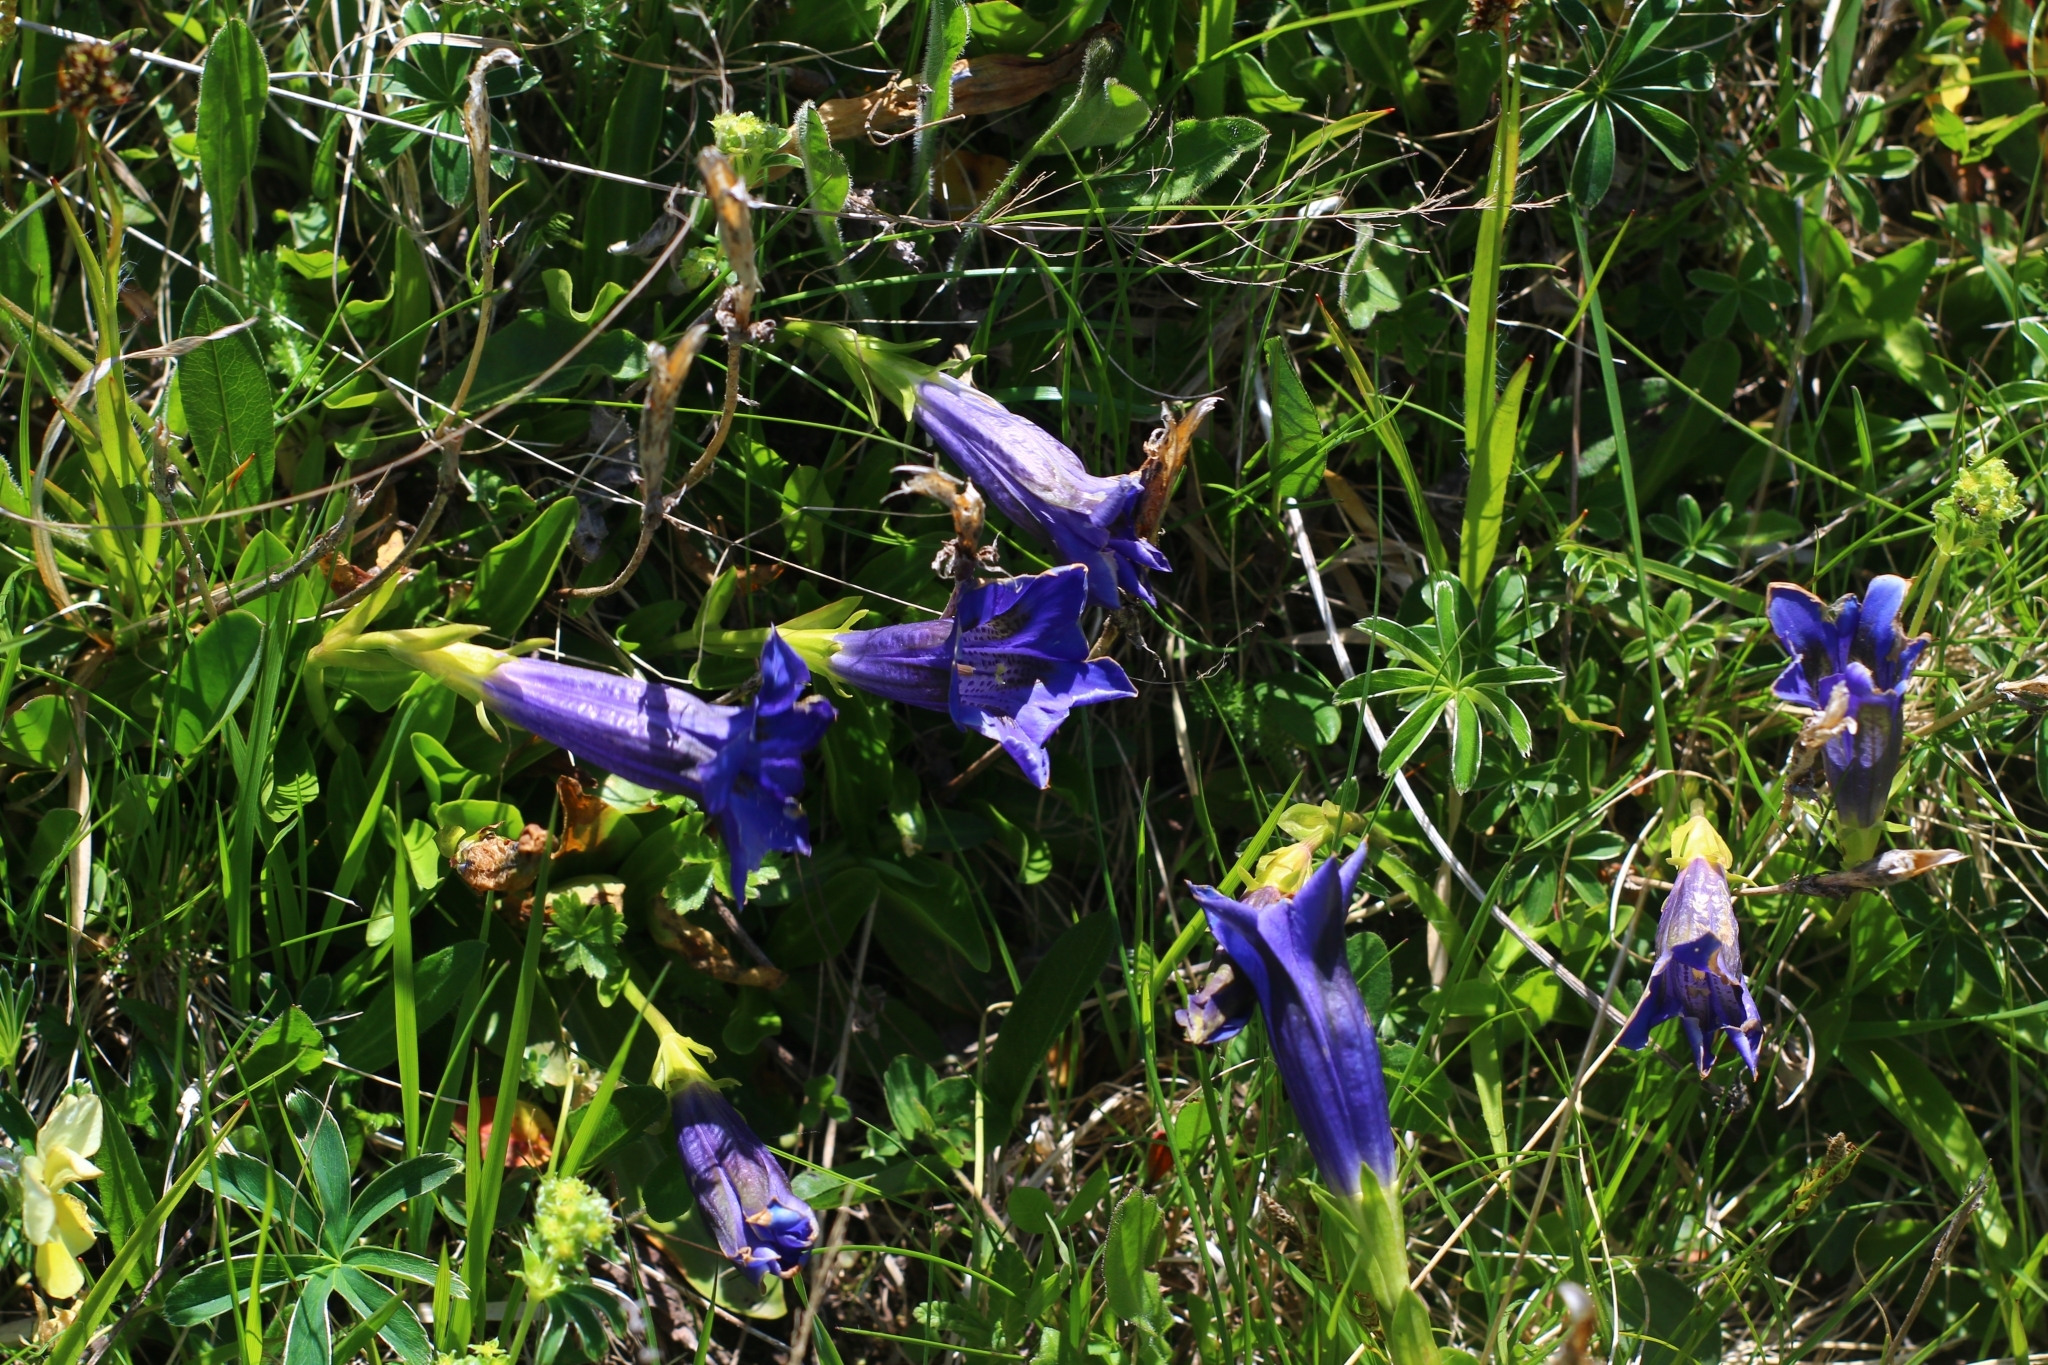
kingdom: Plantae
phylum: Tracheophyta
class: Magnoliopsida
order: Gentianales
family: Gentianaceae
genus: Gentiana
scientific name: Gentiana acaulis
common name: Trumpet gentian
